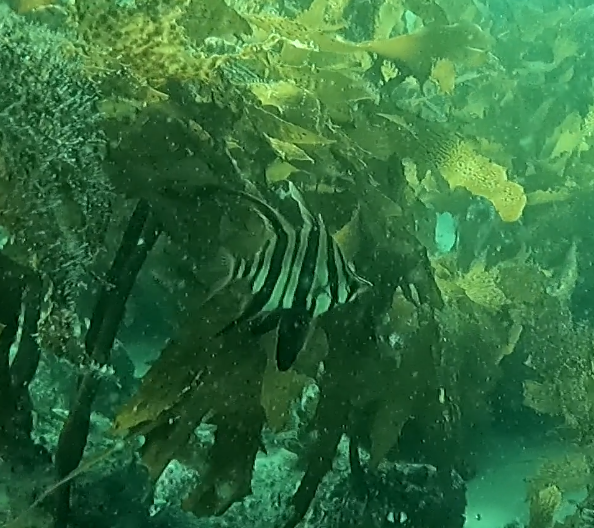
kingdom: Animalia
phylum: Chordata
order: Perciformes
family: Enoplosidae
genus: Enoplosus
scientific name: Enoplosus armatus
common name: Old wife
